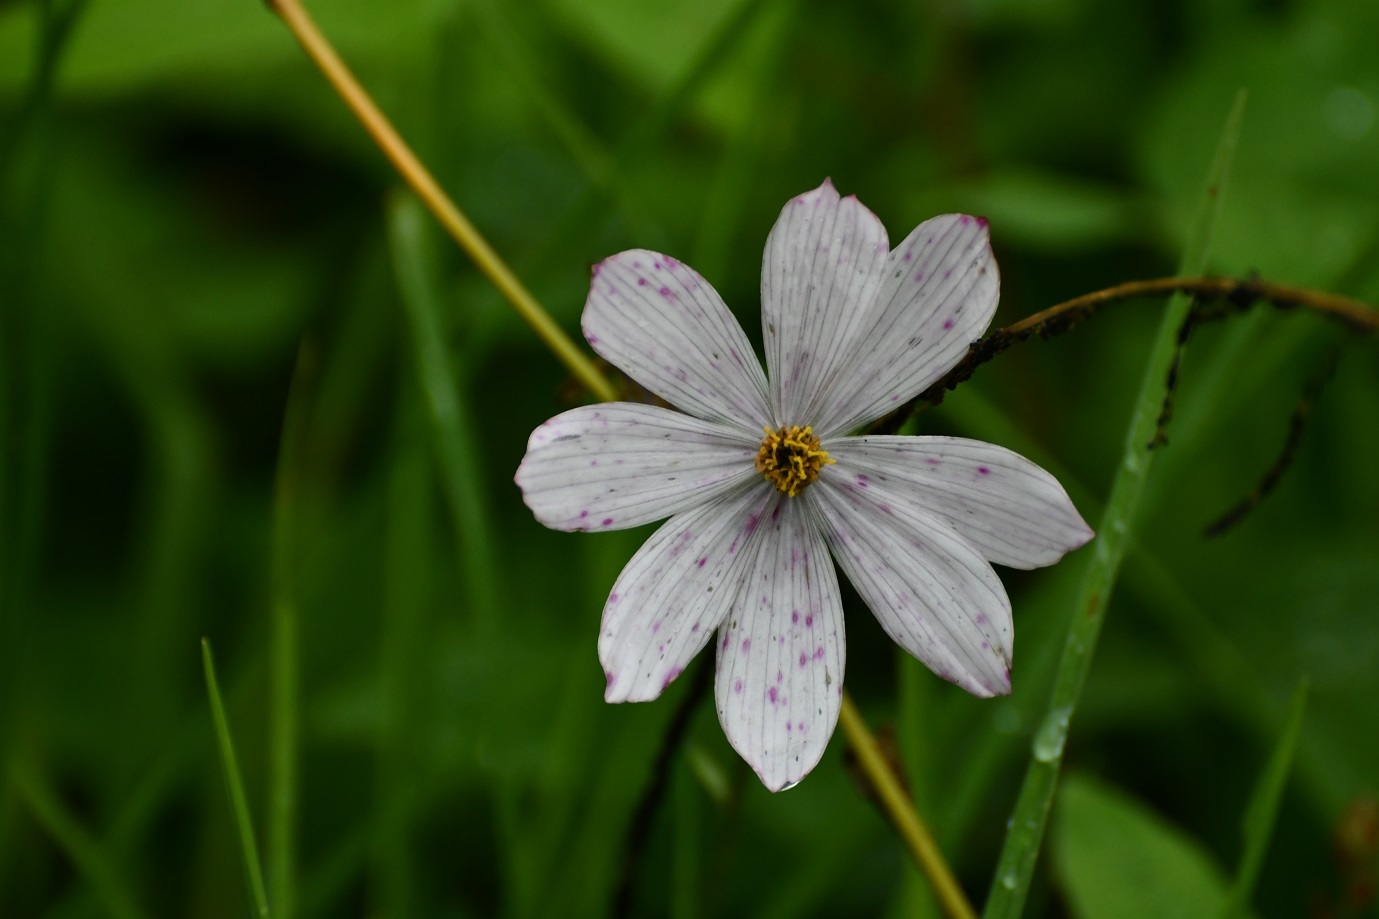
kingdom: Plantae
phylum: Tracheophyta
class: Magnoliopsida
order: Asterales
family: Asteraceae
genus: Cosmos
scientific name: Cosmos diversifolius
